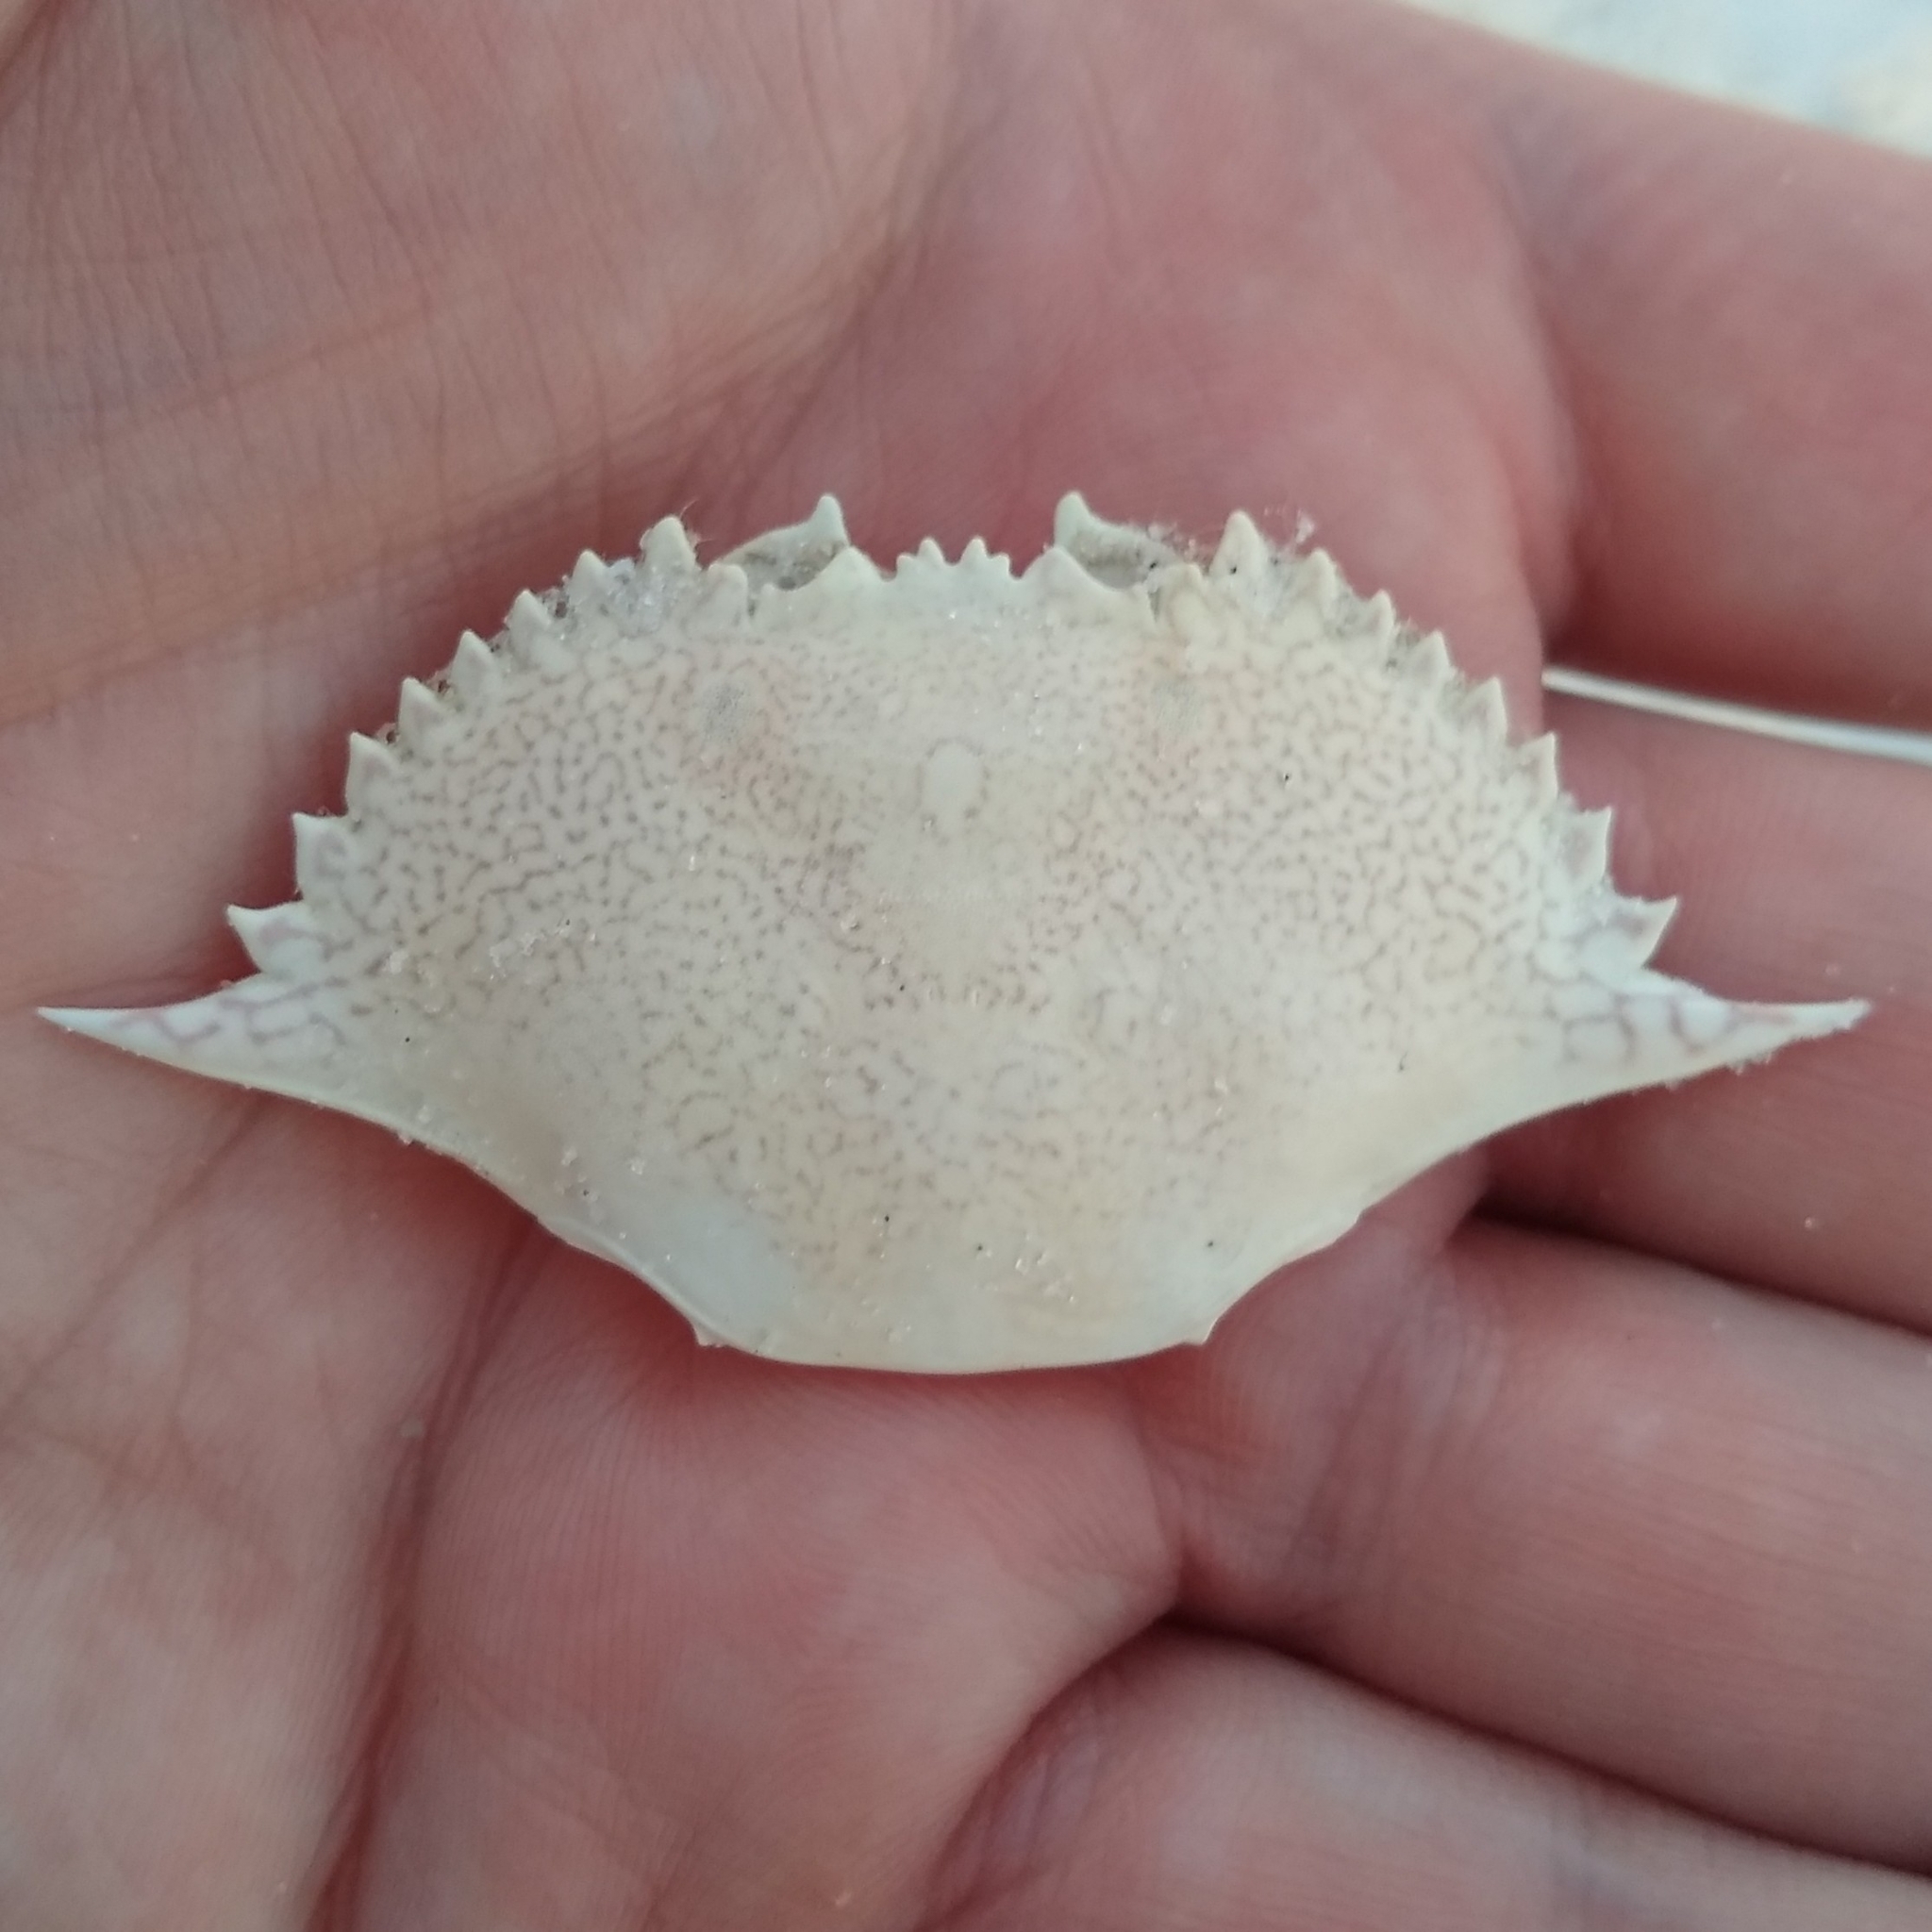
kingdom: Animalia
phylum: Arthropoda
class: Malacostraca
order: Decapoda
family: Portunidae
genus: Arenaeus
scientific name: Arenaeus cribrarius
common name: Speckled crab
